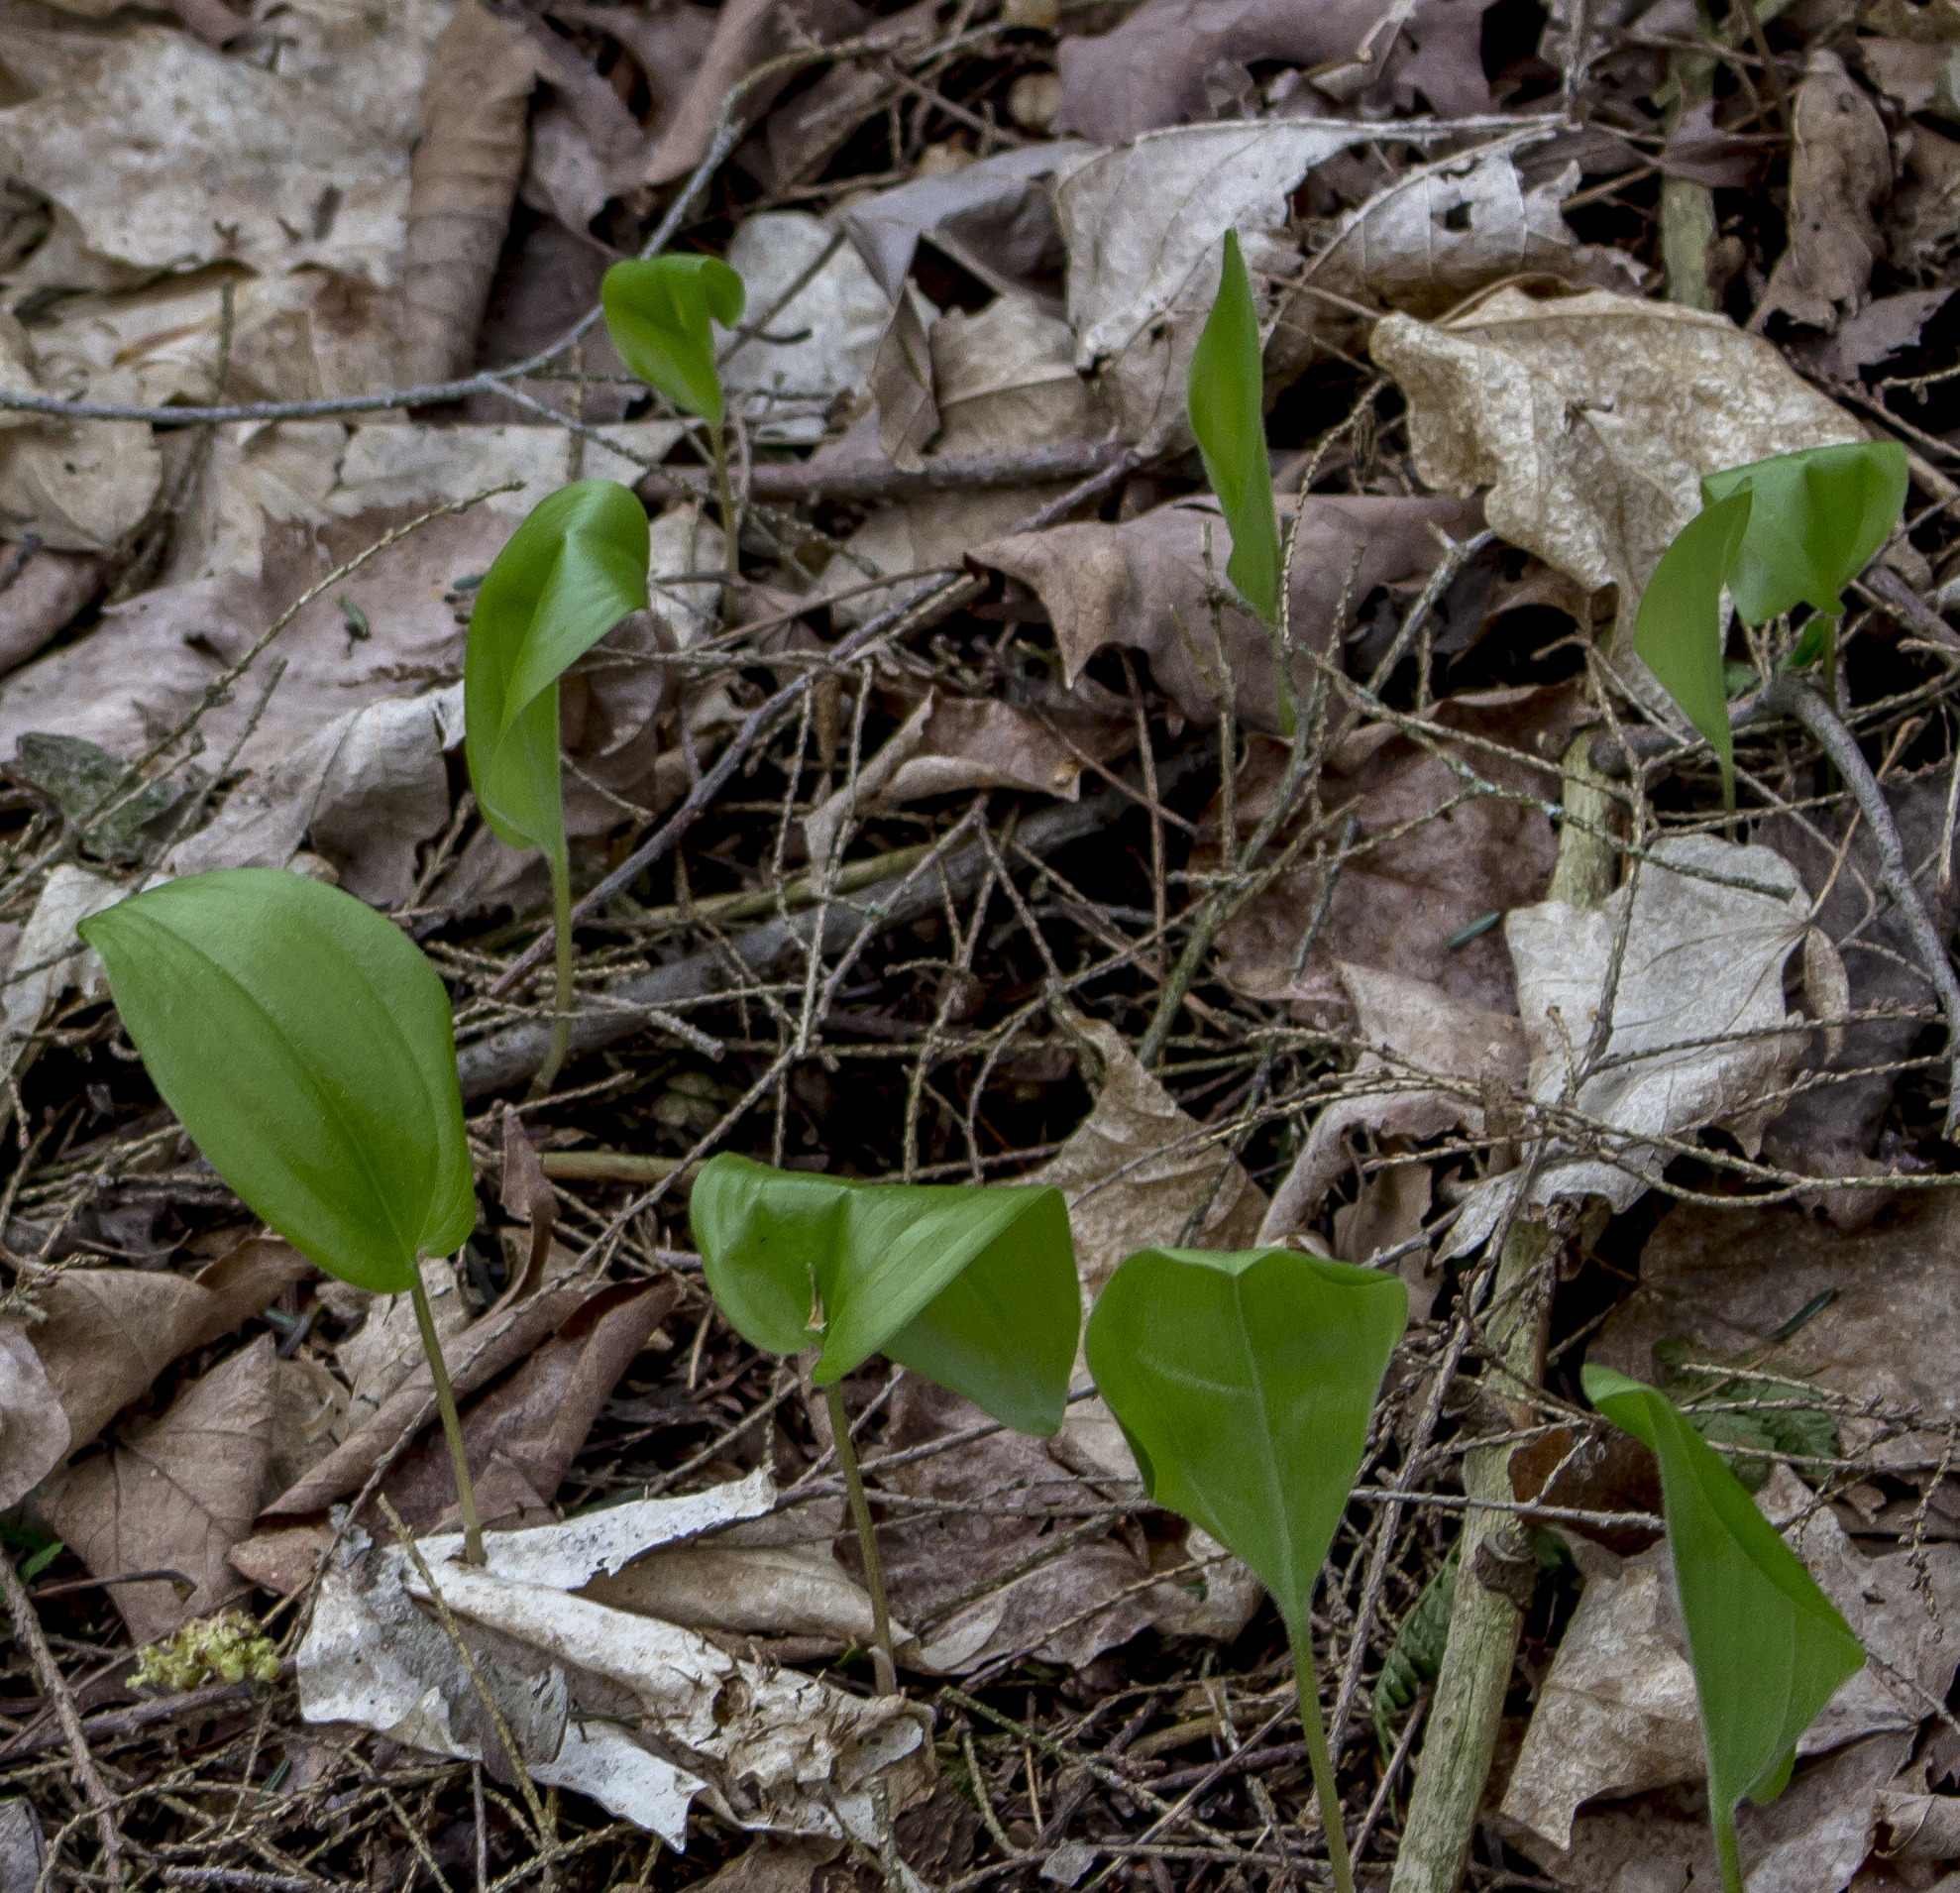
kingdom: Plantae
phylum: Tracheophyta
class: Liliopsida
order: Asparagales
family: Asparagaceae
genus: Maianthemum
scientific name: Maianthemum canadense
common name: False lily-of-the-valley
